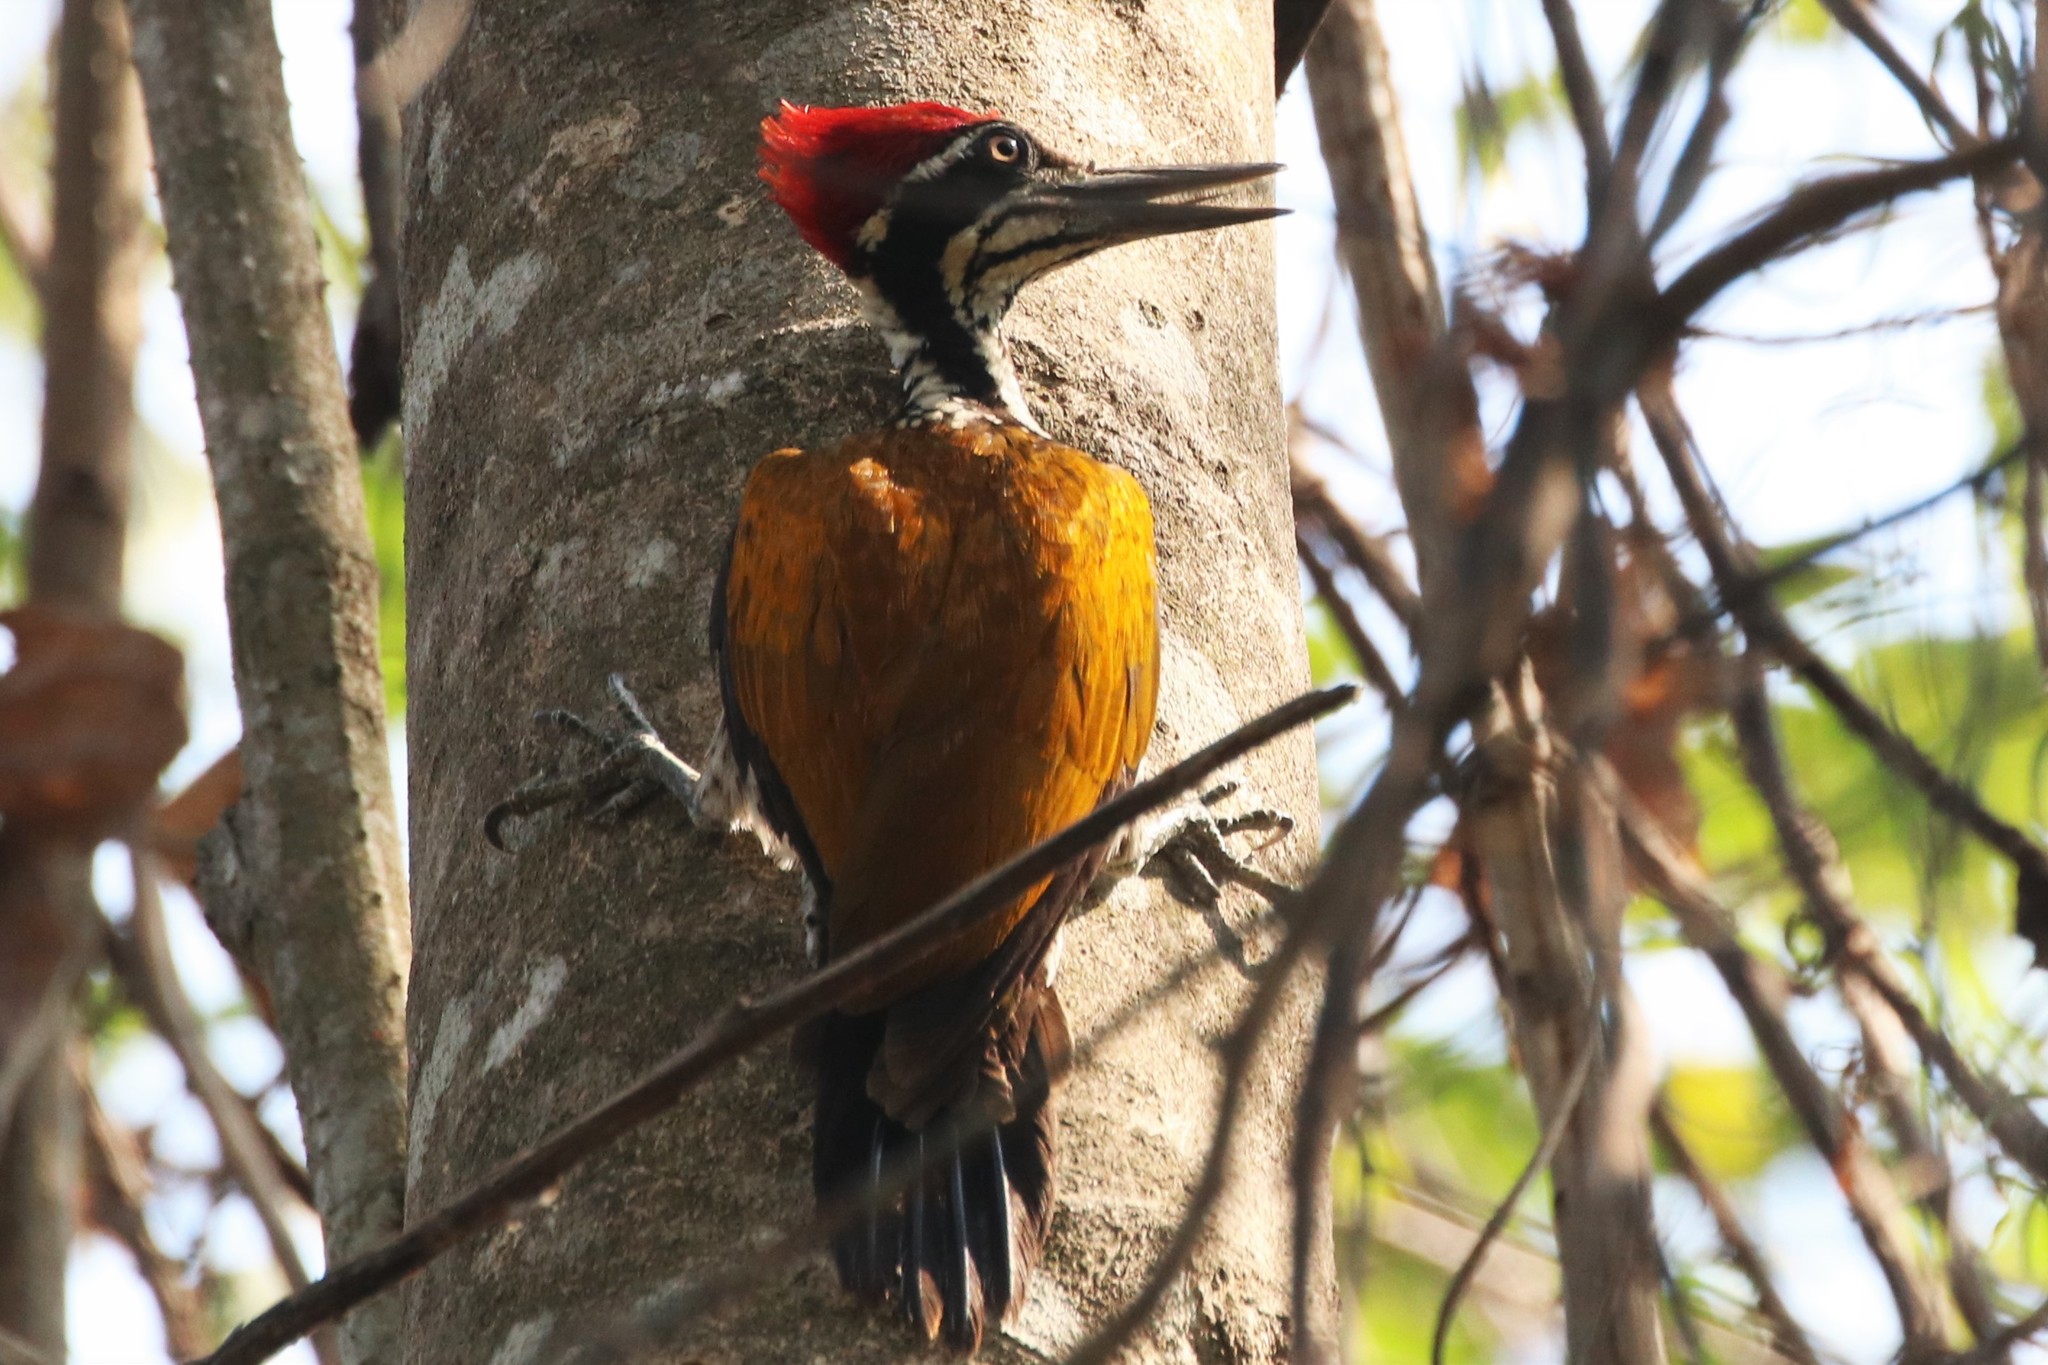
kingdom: Animalia
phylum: Chordata
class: Aves
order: Piciformes
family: Picidae
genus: Chrysocolaptes
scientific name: Chrysocolaptes guttacristatus
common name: Greater flameback
